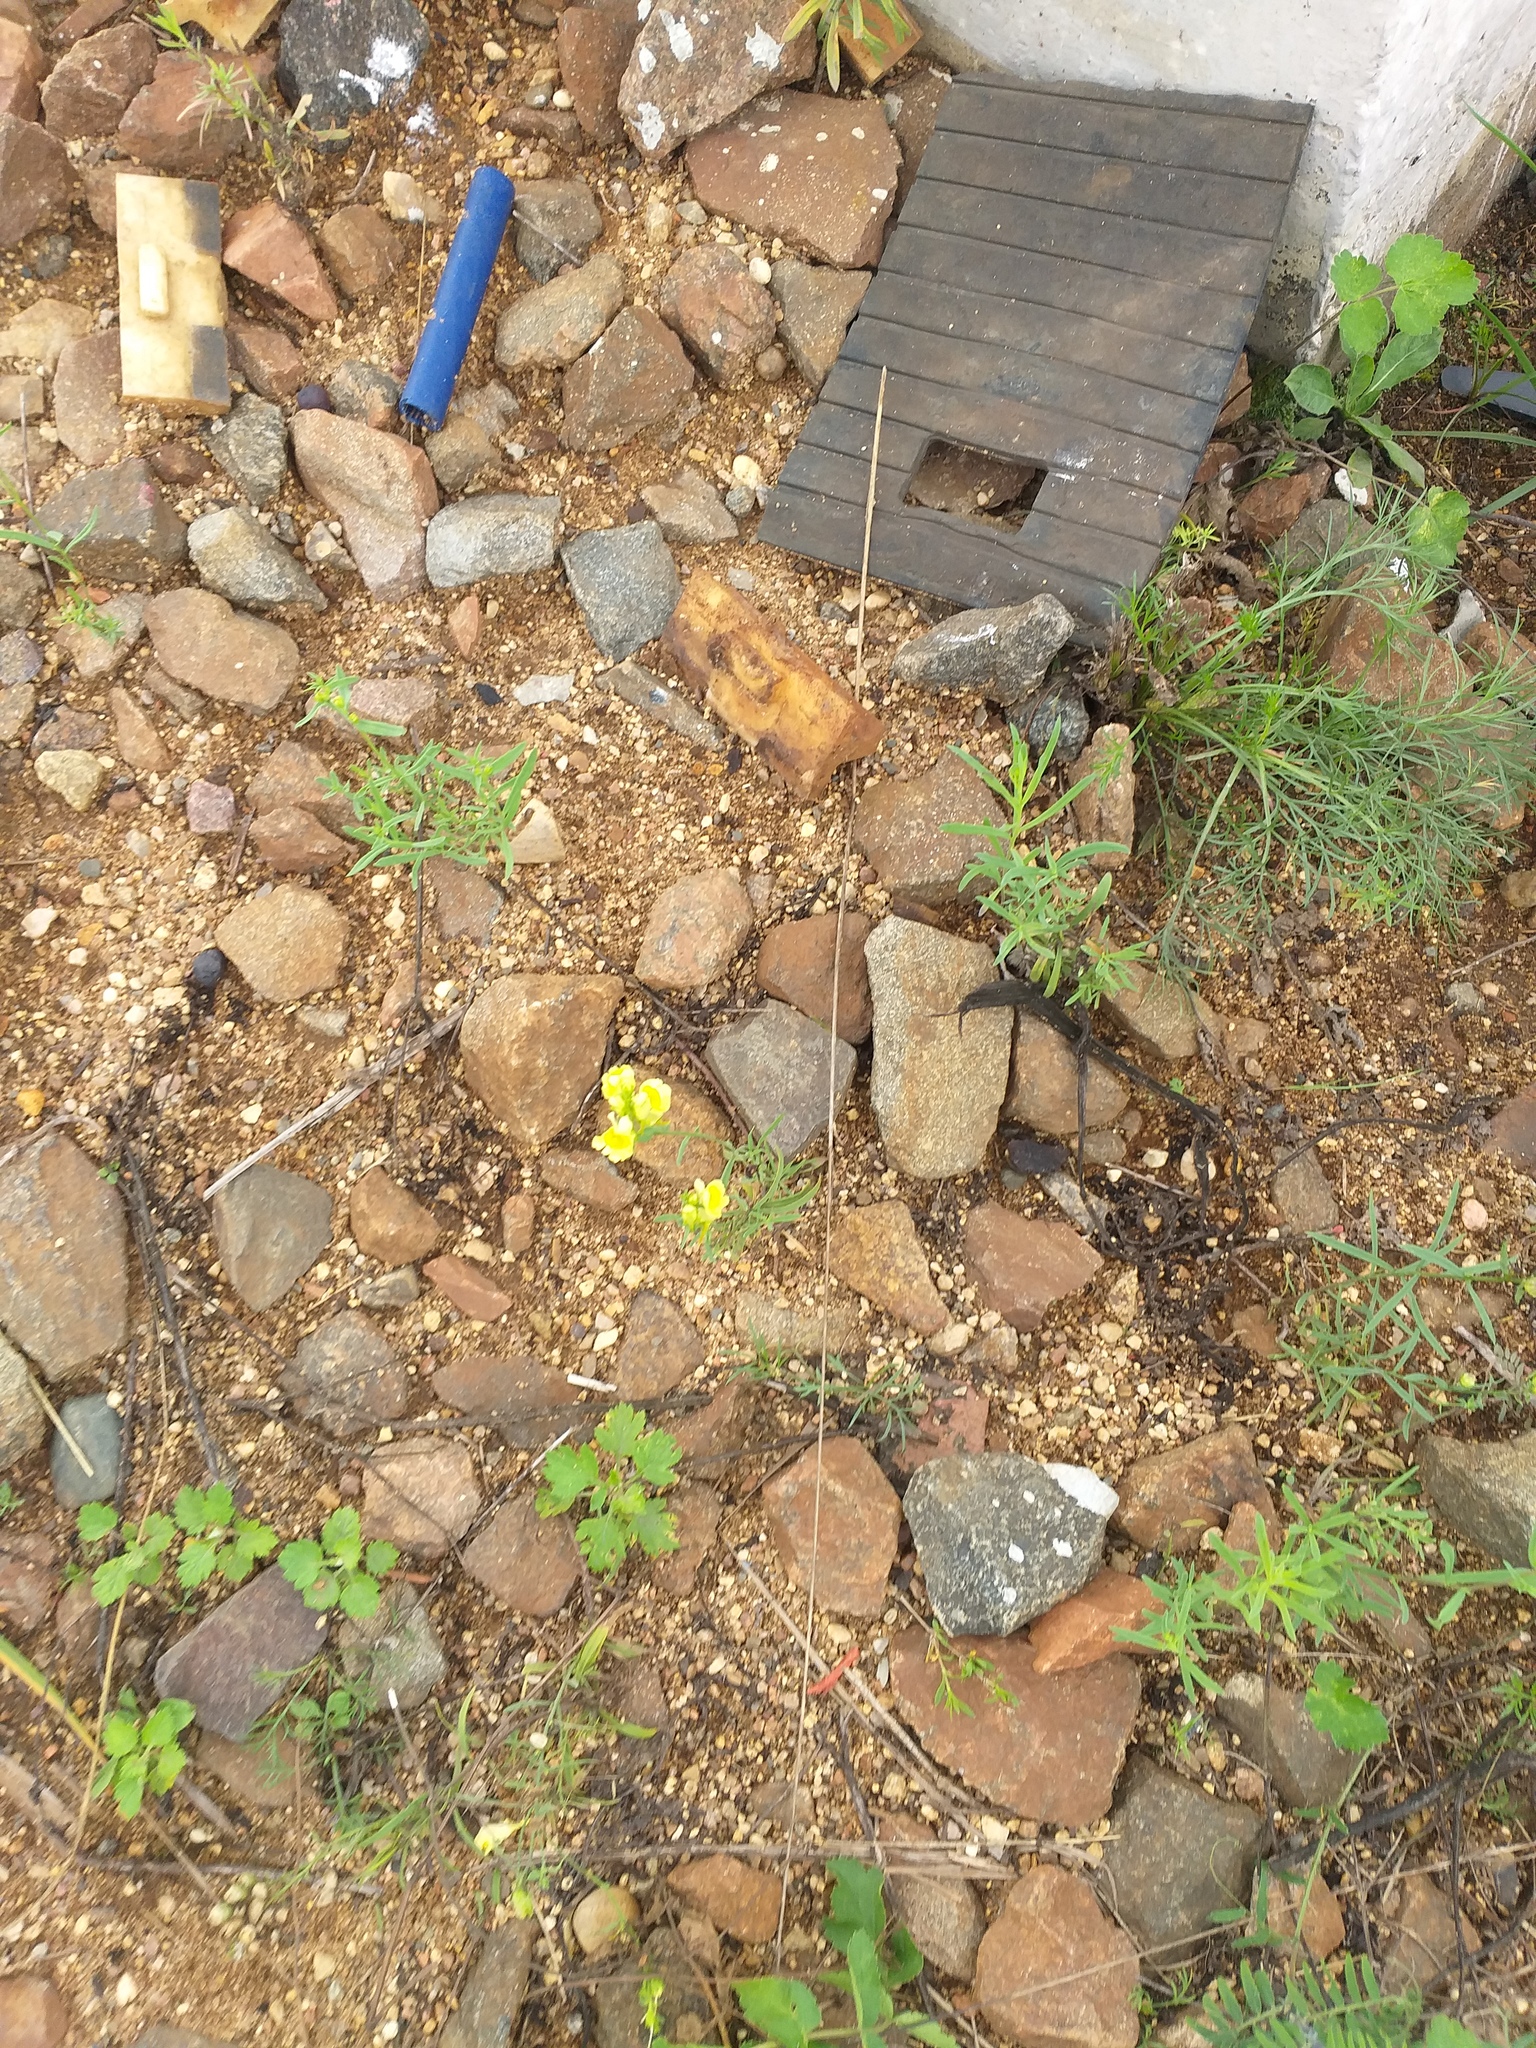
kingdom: Plantae
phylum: Tracheophyta
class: Magnoliopsida
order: Lamiales
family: Plantaginaceae
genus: Linaria
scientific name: Linaria vulgaris
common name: Butter and eggs
